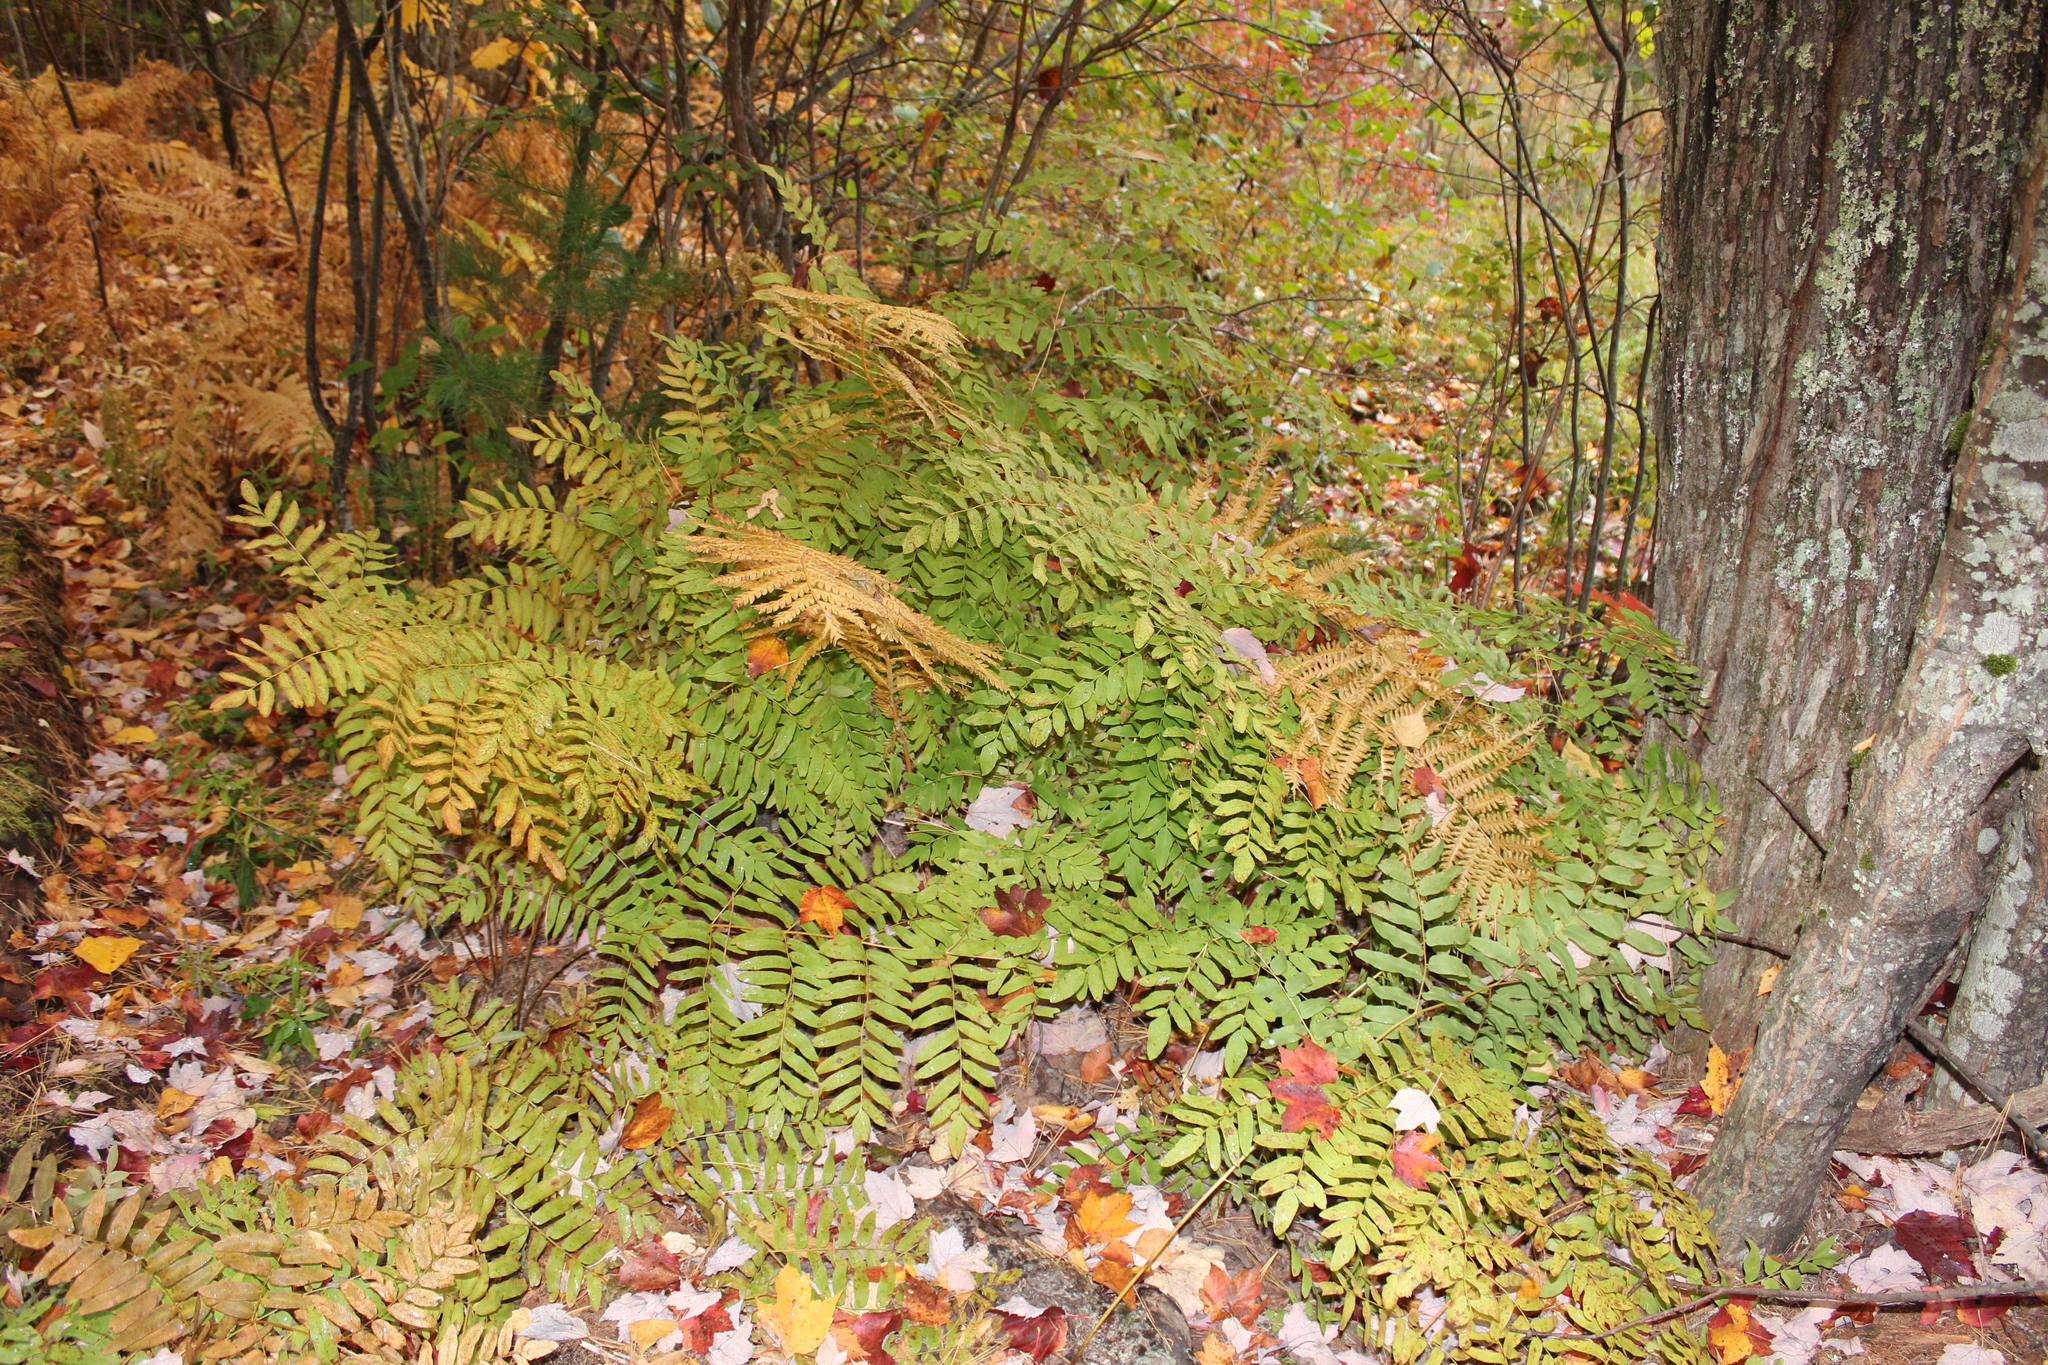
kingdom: Plantae
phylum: Tracheophyta
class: Polypodiopsida
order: Osmundales
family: Osmundaceae
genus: Osmunda
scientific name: Osmunda spectabilis
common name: American royal fern
